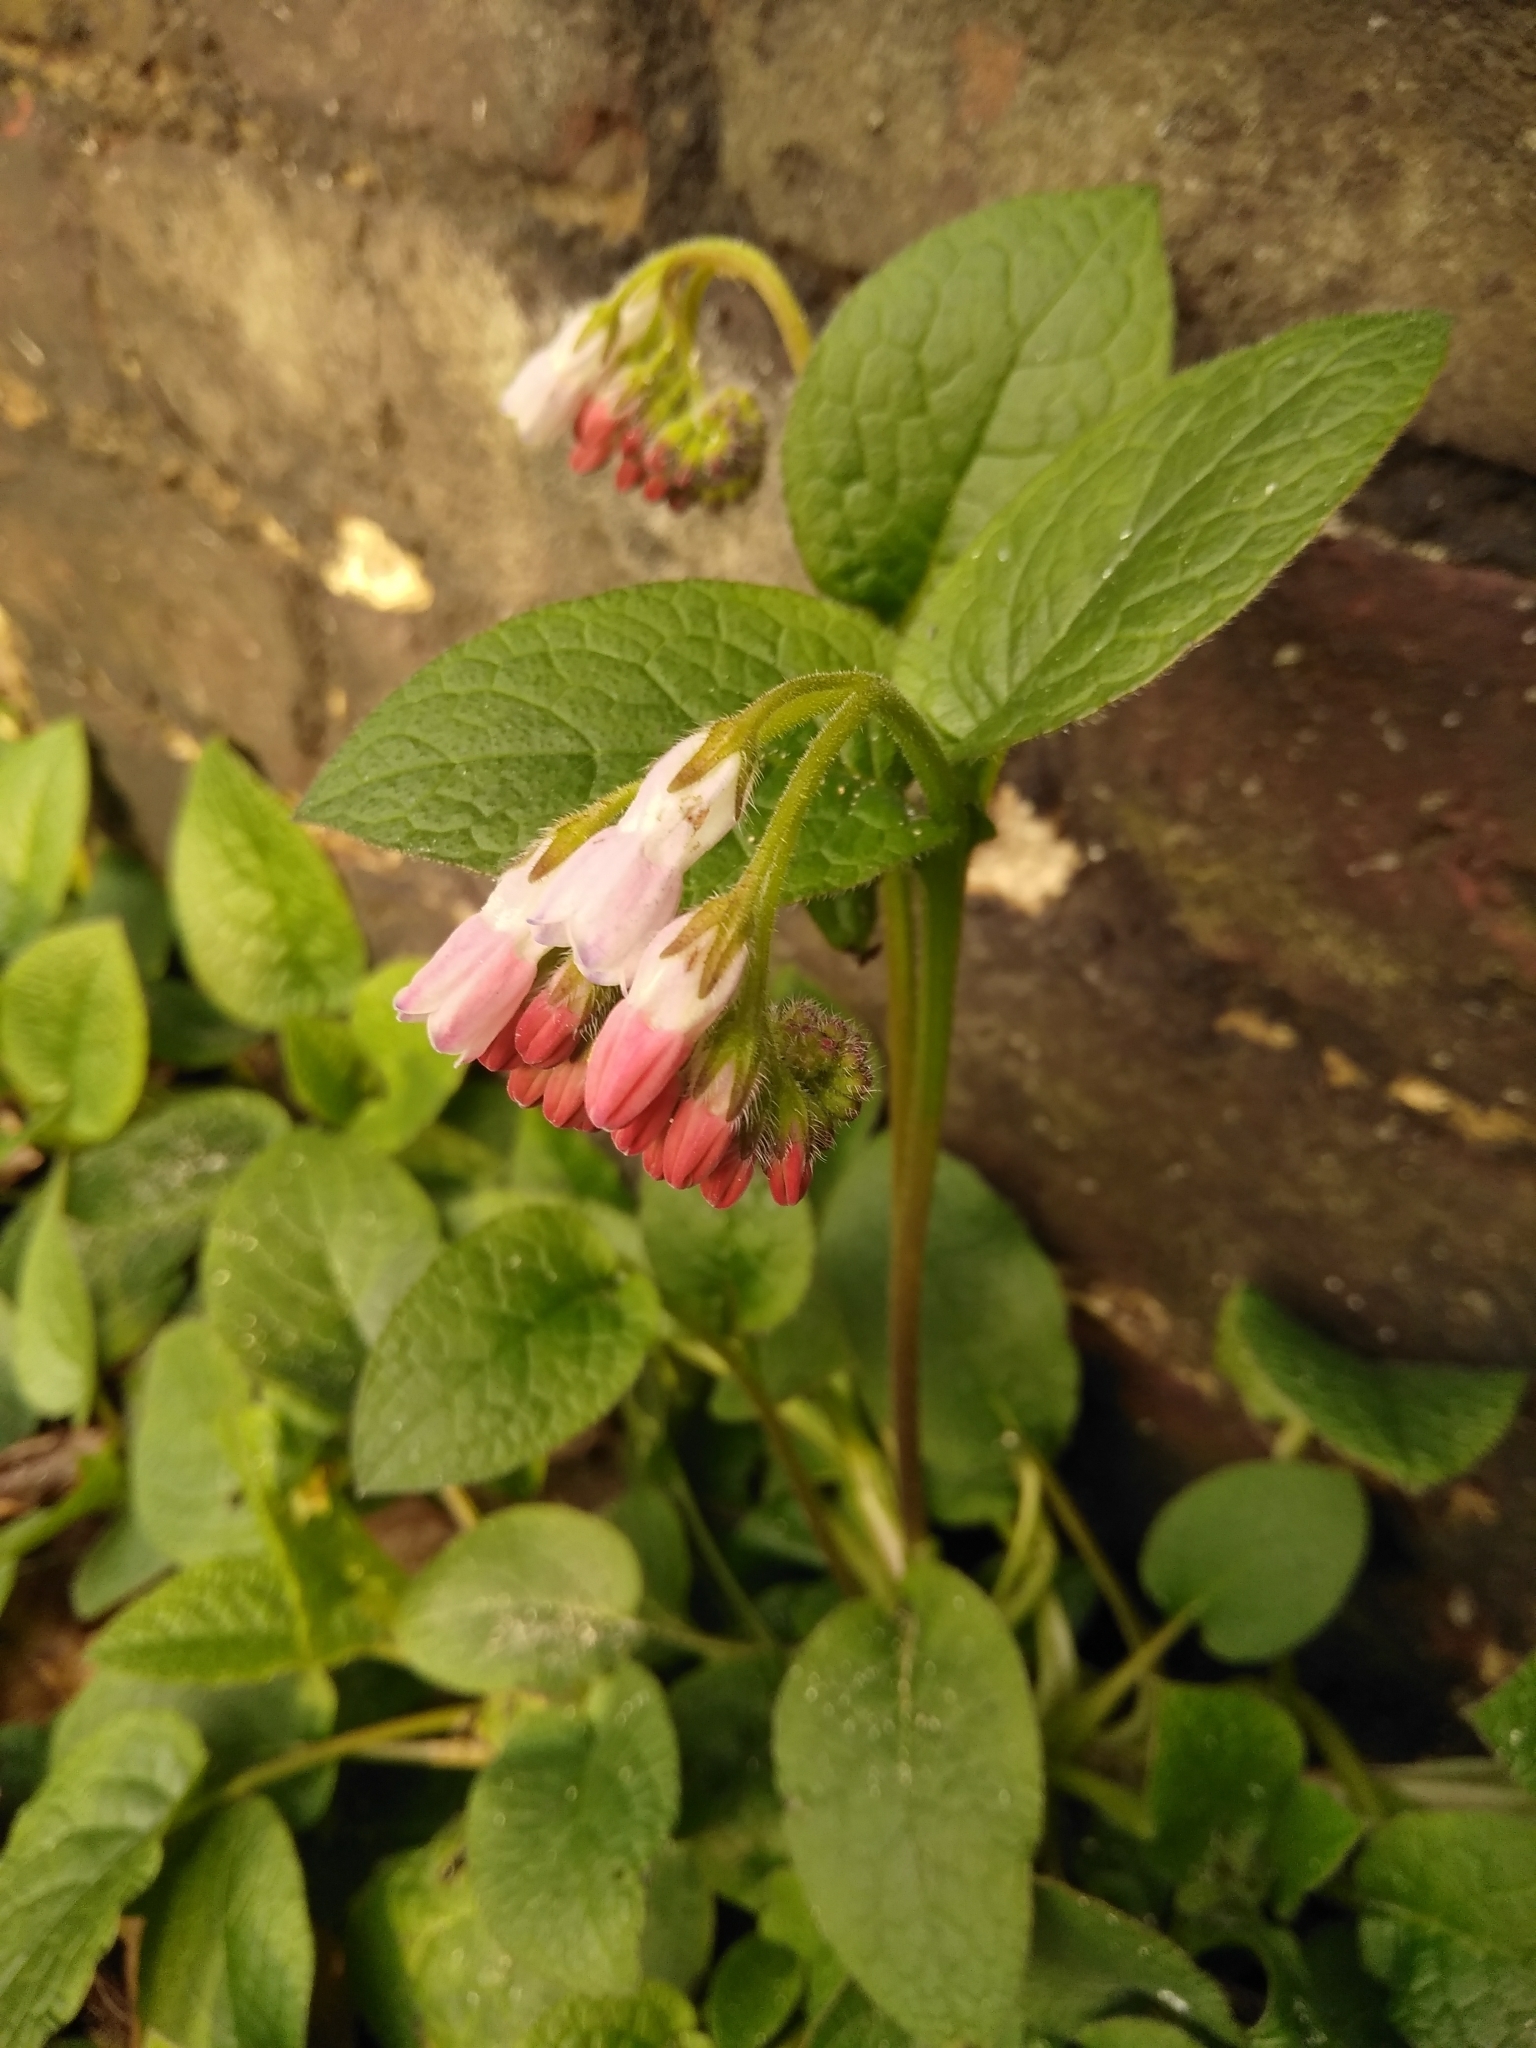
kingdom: Plantae
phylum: Tracheophyta
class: Magnoliopsida
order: Boraginales
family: Boraginaceae
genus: Symphytum
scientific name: Symphytum hidcotense
